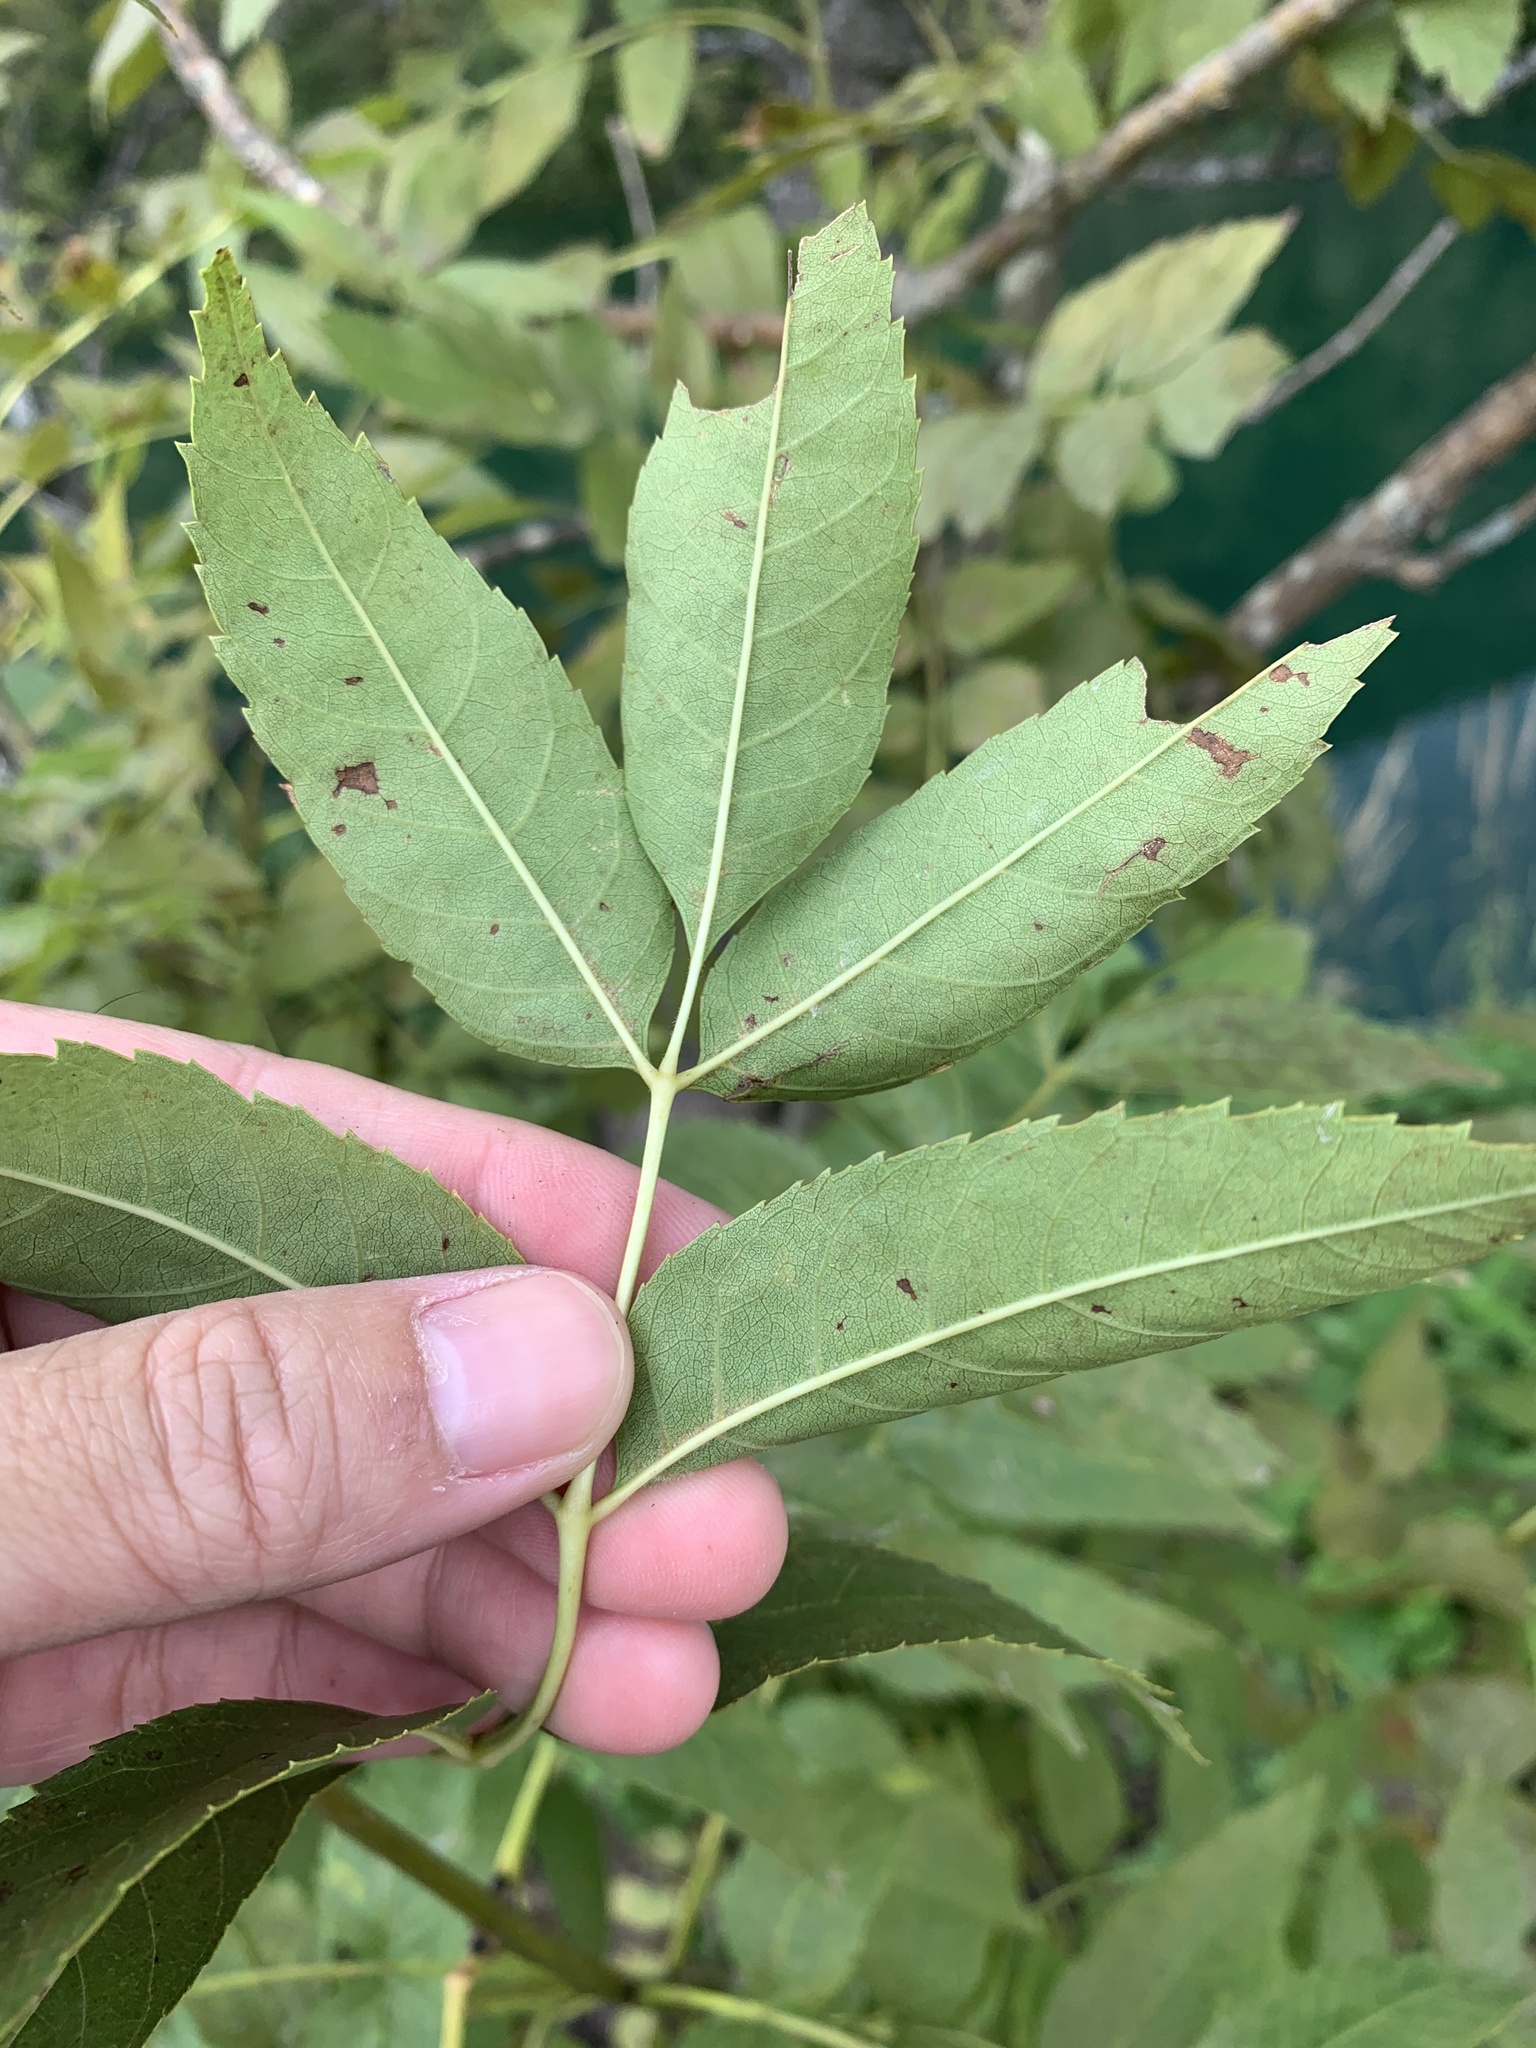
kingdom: Plantae
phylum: Tracheophyta
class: Magnoliopsida
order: Lamiales
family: Oleaceae
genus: Fraxinus
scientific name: Fraxinus excelsior
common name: European ash
